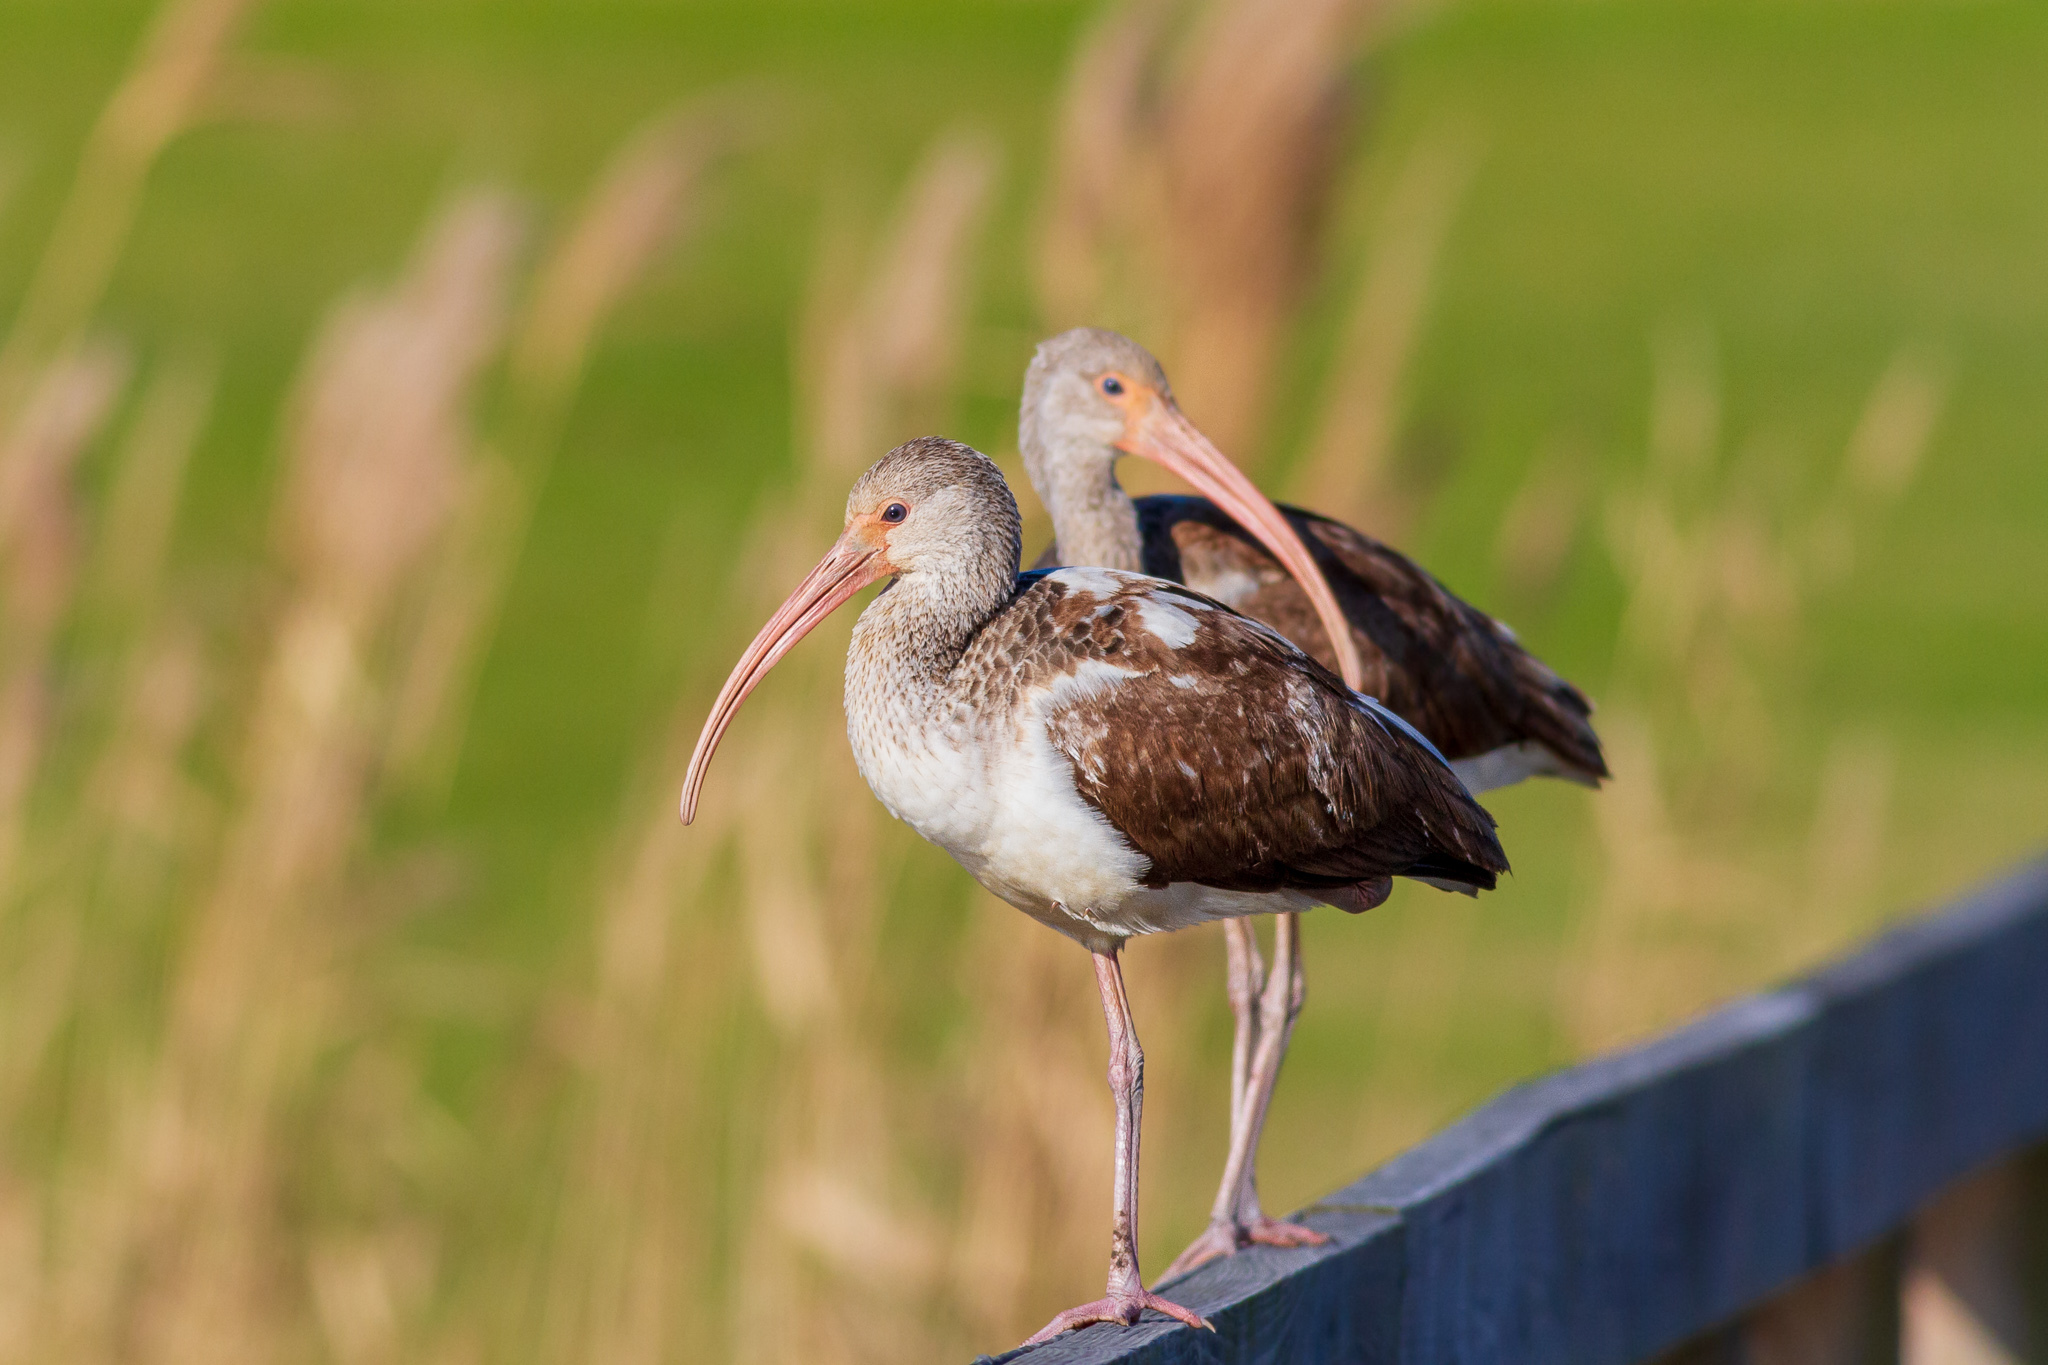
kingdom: Animalia
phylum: Chordata
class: Aves
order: Pelecaniformes
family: Threskiornithidae
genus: Eudocimus
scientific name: Eudocimus albus
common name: White ibis
